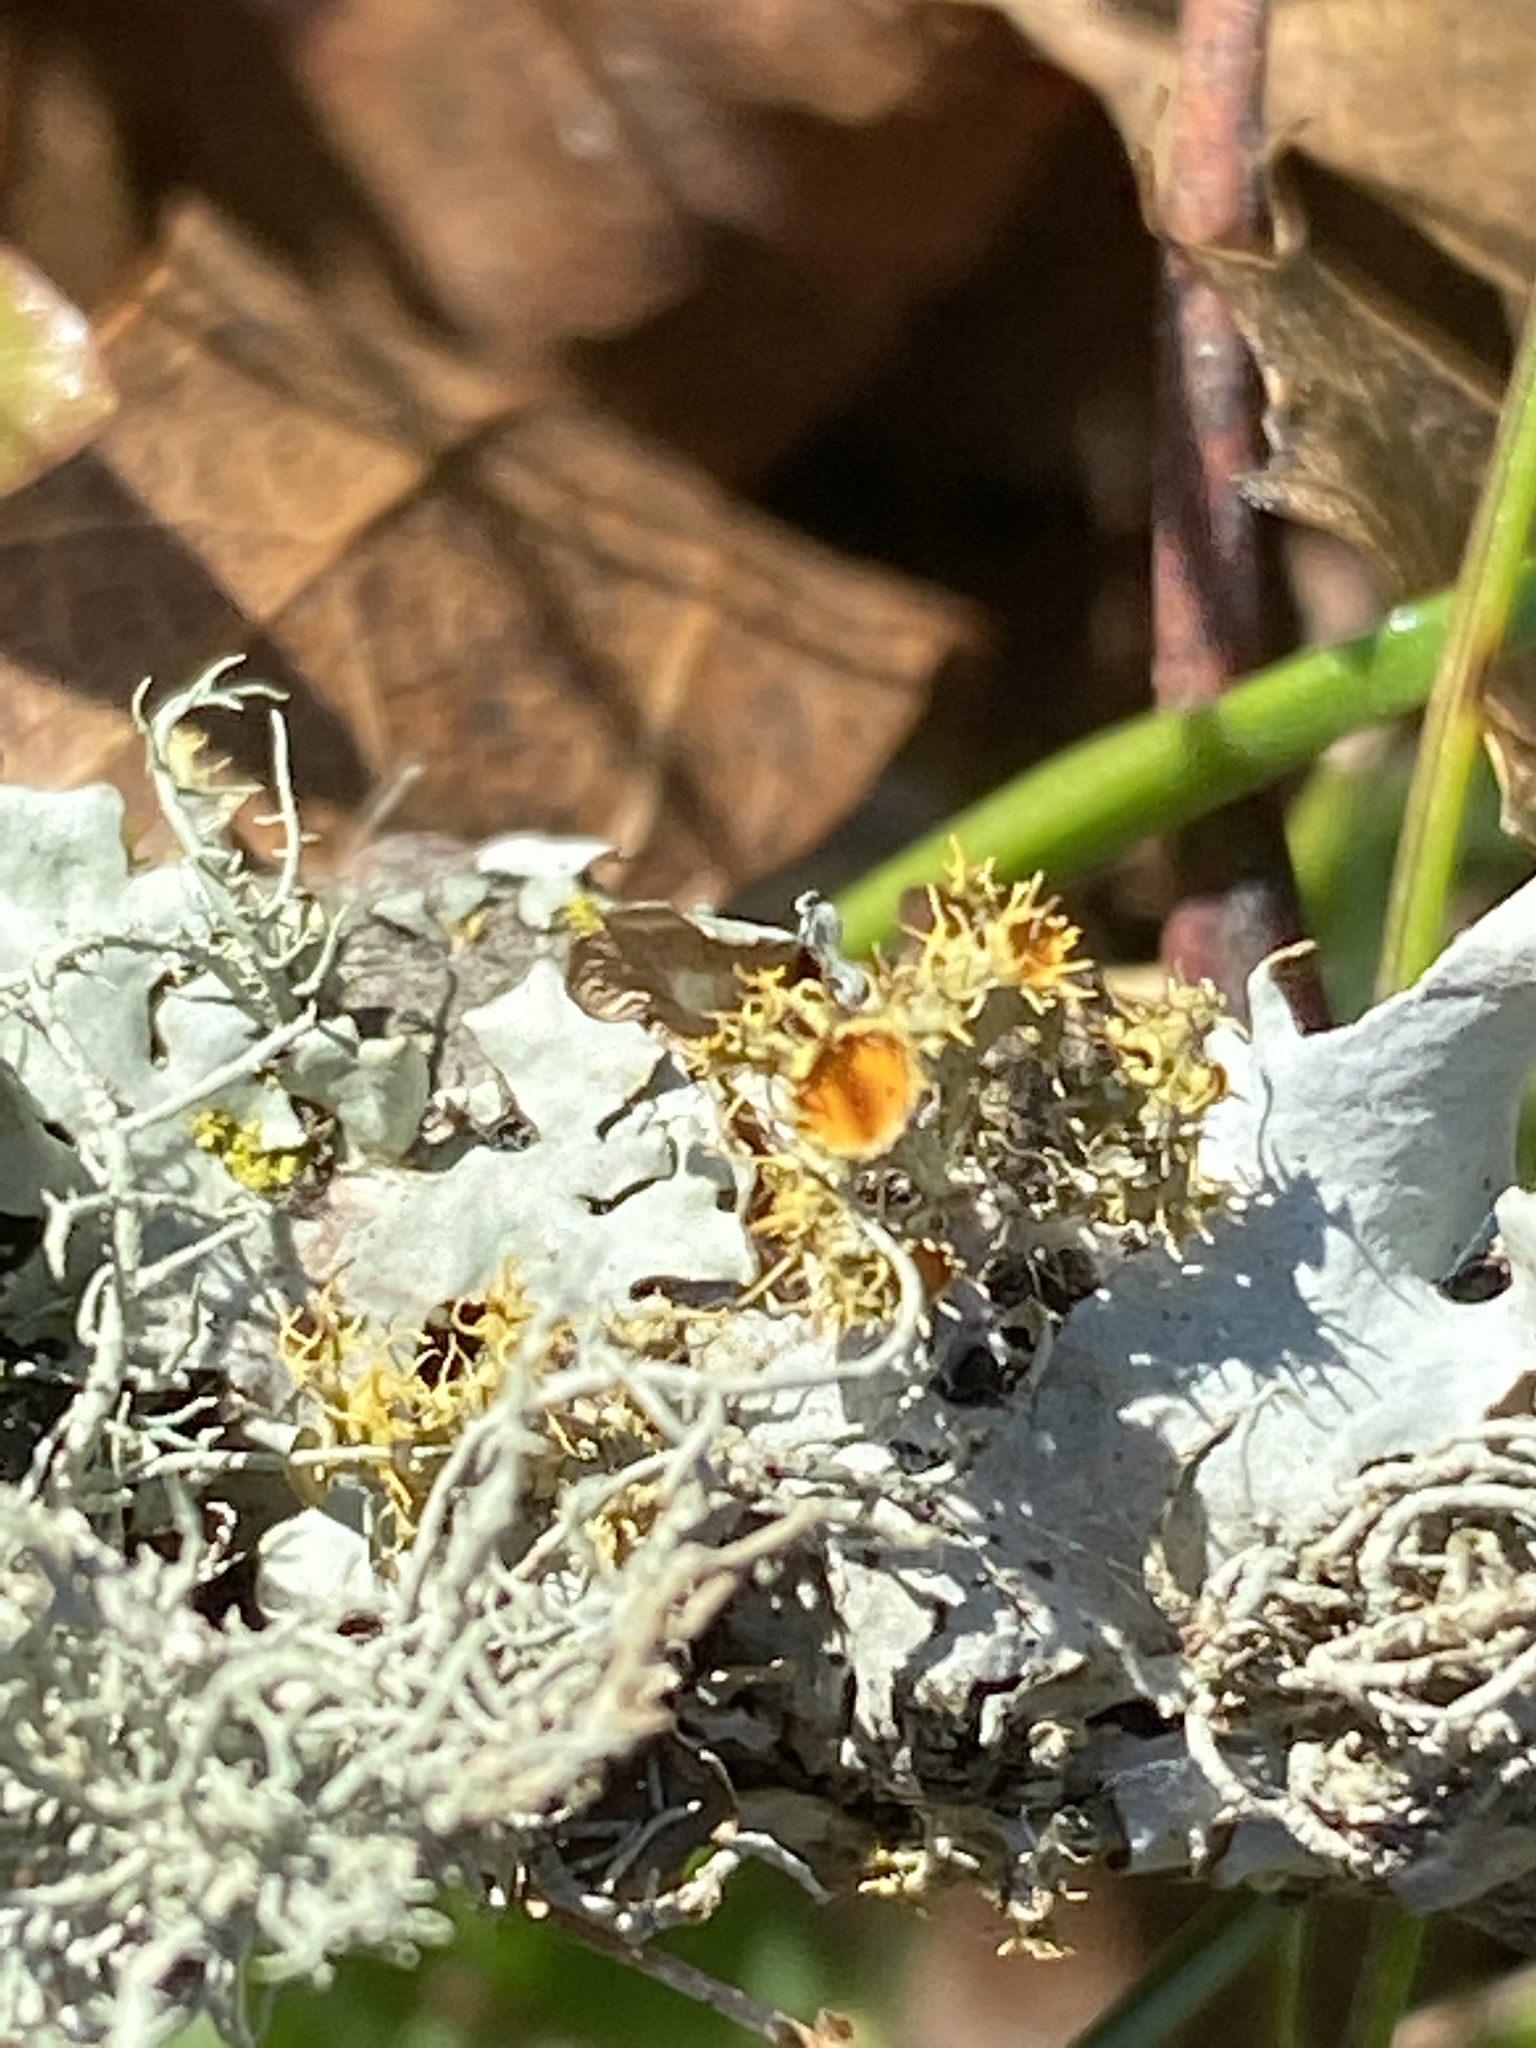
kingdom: Fungi
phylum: Ascomycota
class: Lecanoromycetes
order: Teloschistales
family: Teloschistaceae
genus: Niorma
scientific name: Niorma chrysophthalma
